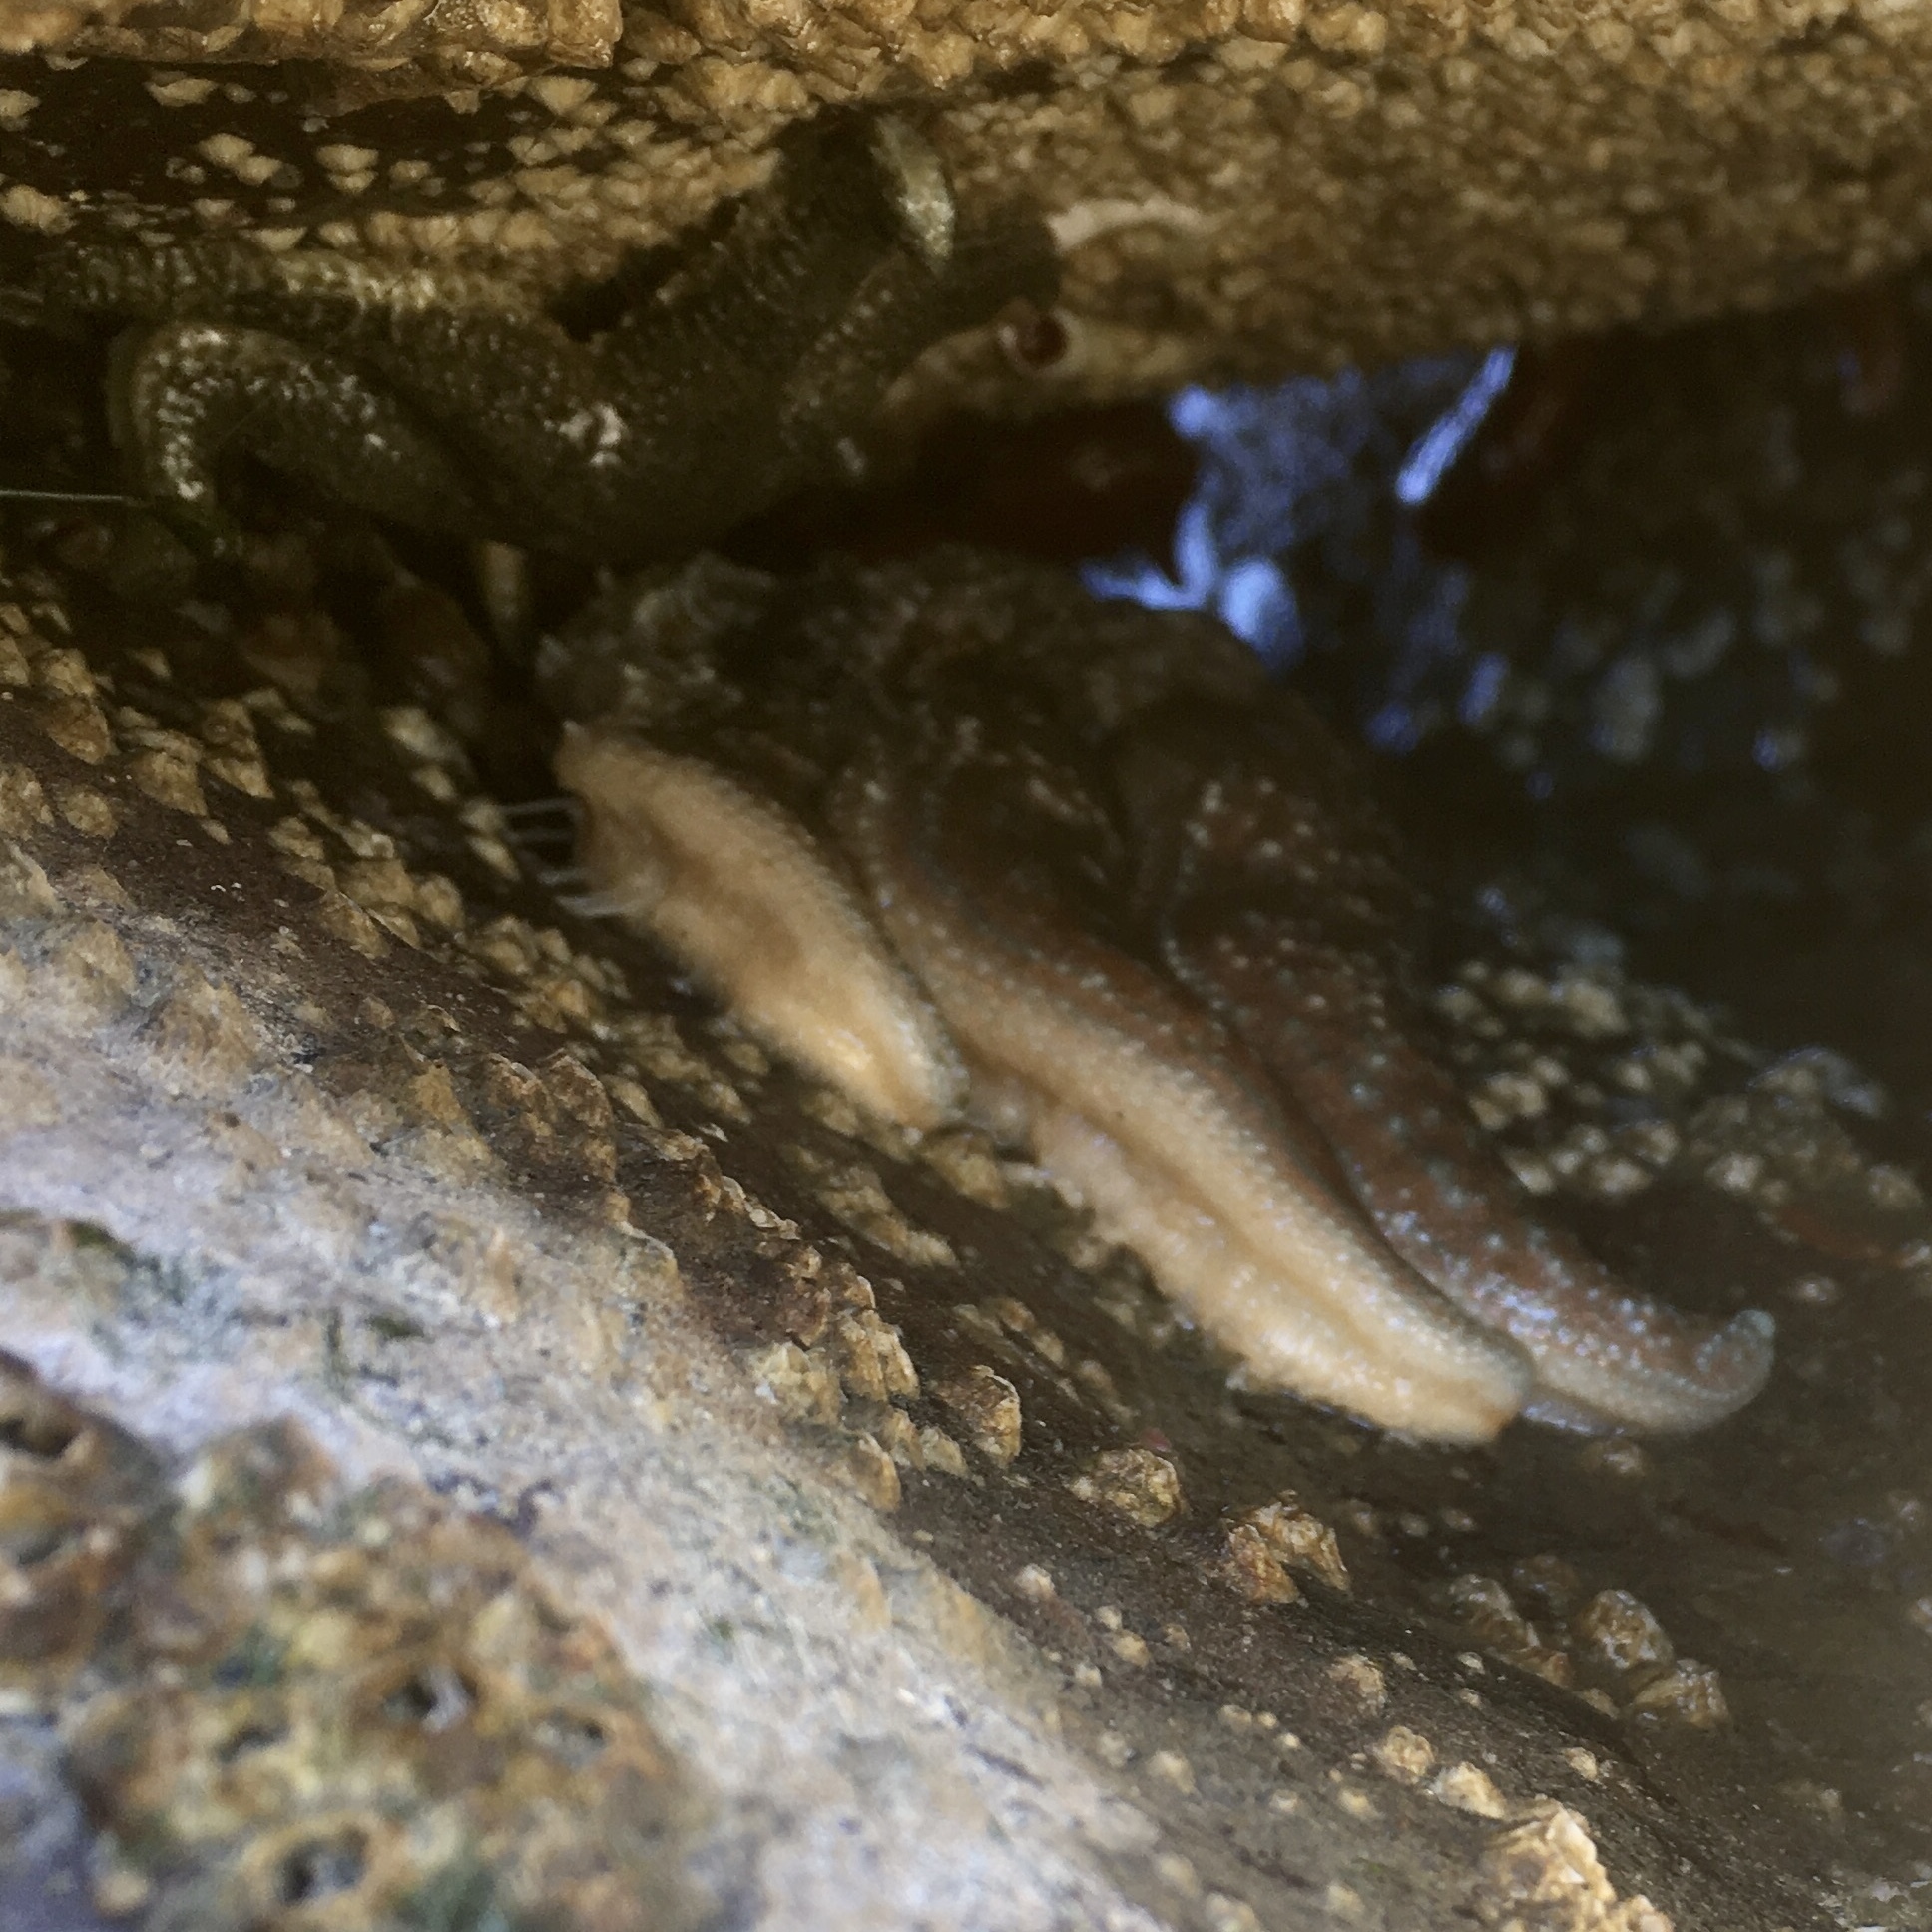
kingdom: Animalia
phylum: Echinodermata
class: Asteroidea
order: Forcipulatida
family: Asteriidae
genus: Evasterias
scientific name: Evasterias troschelii
